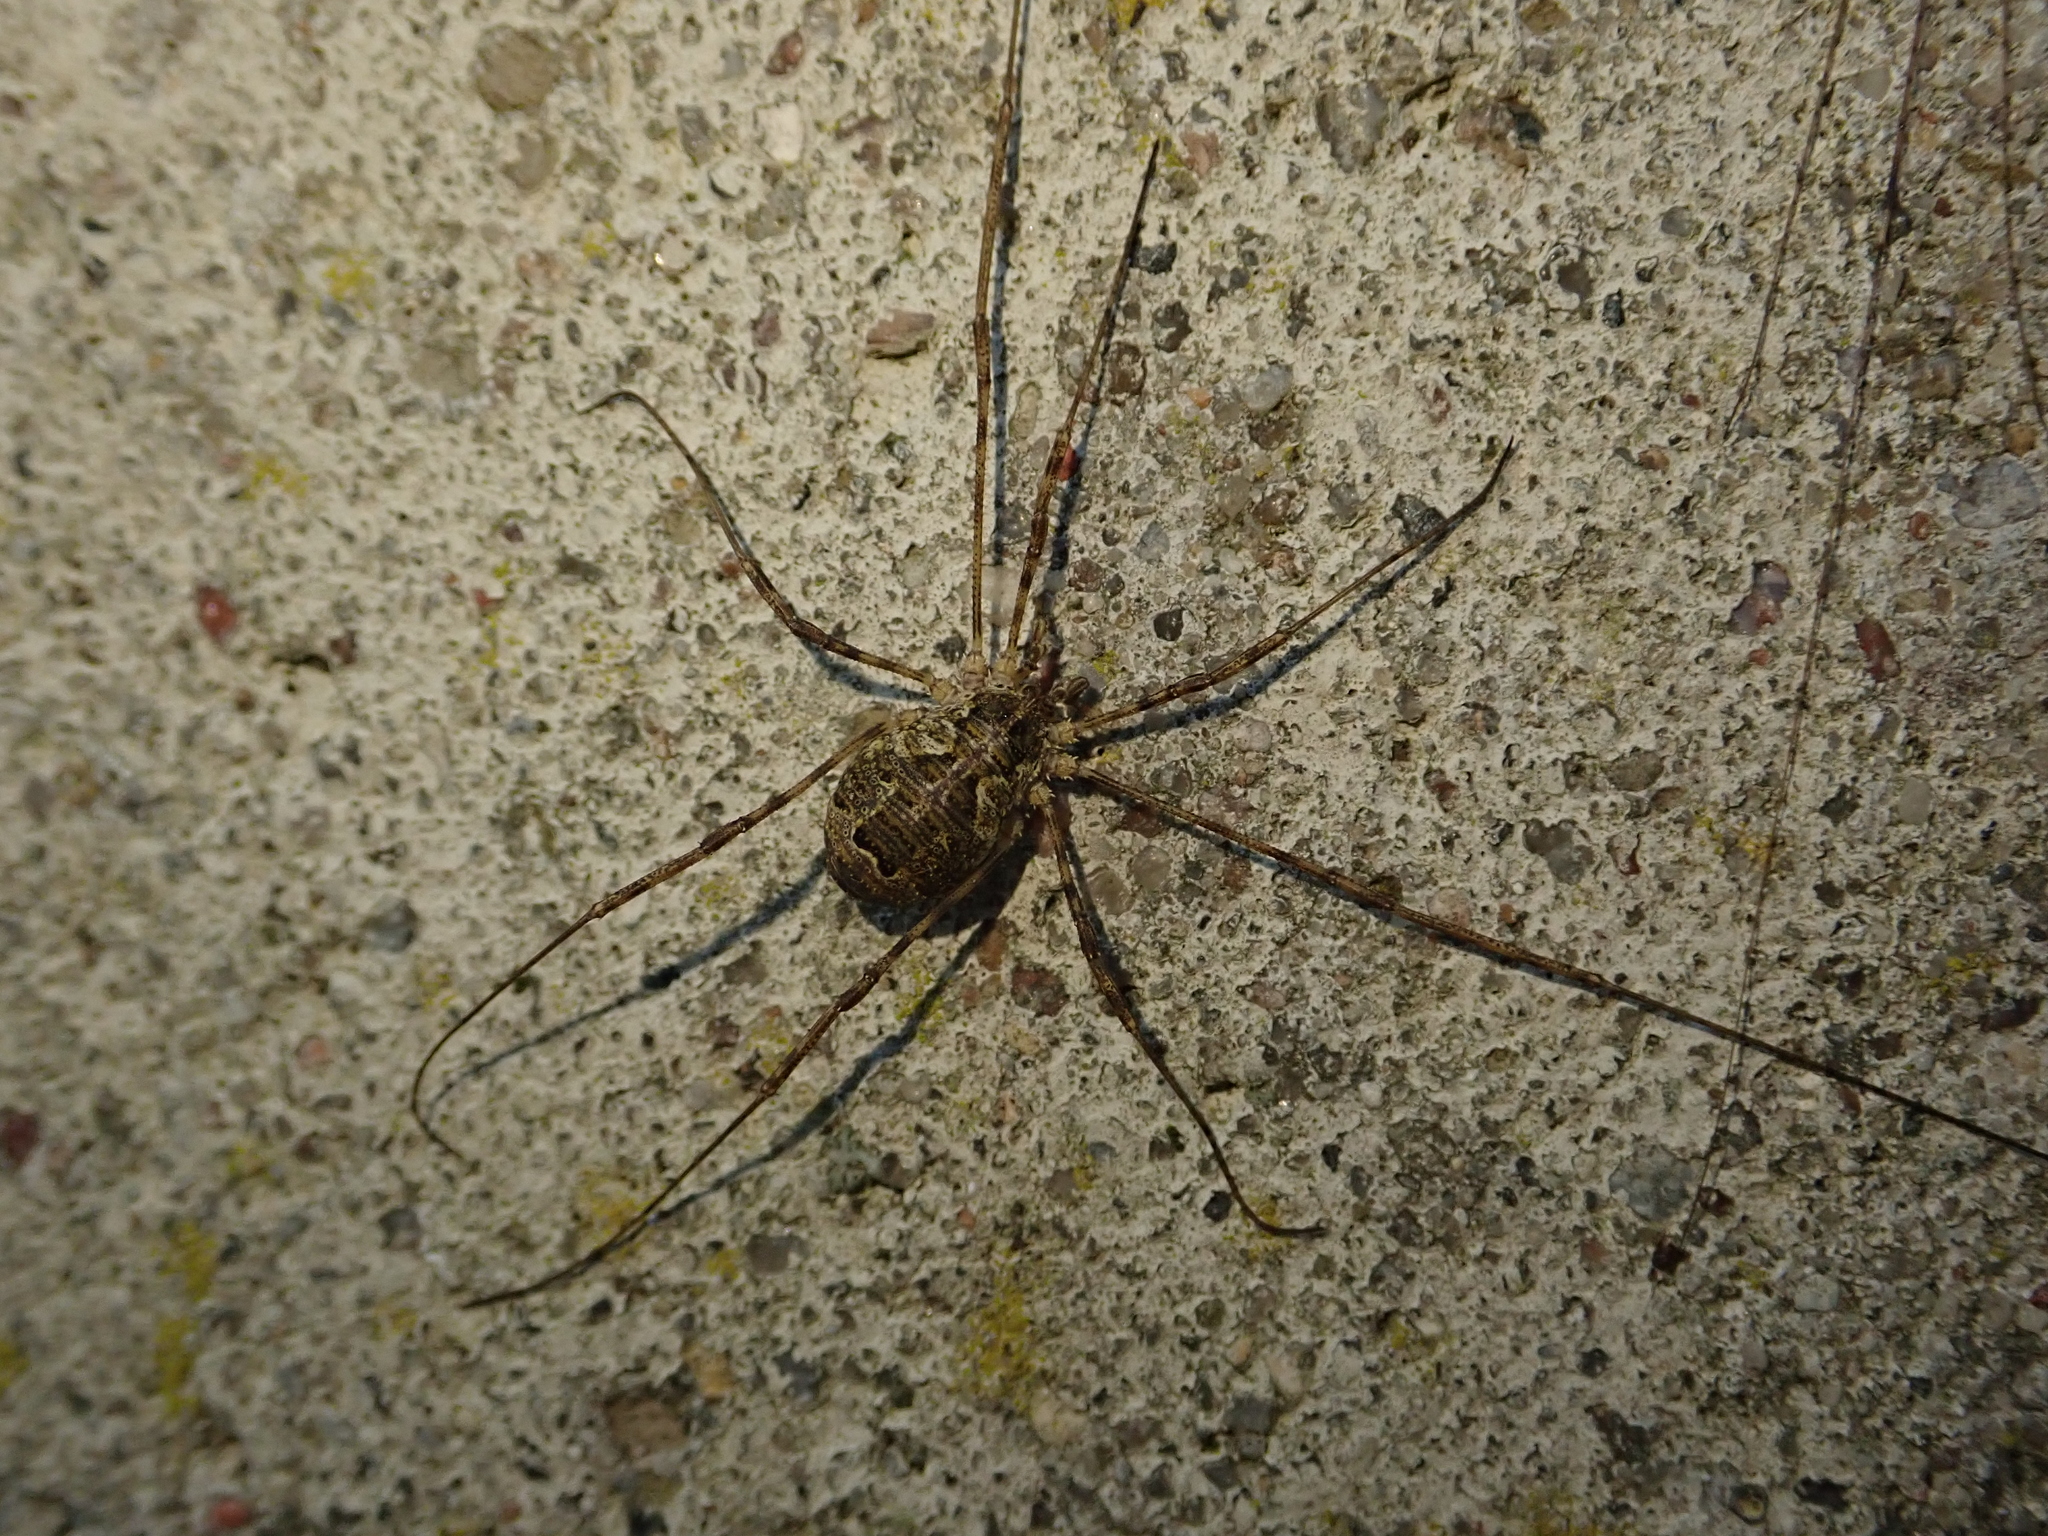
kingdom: Animalia
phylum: Arthropoda
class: Arachnida
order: Opiliones
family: Phalangiidae
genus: Lacinius
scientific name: Lacinius dentiger
